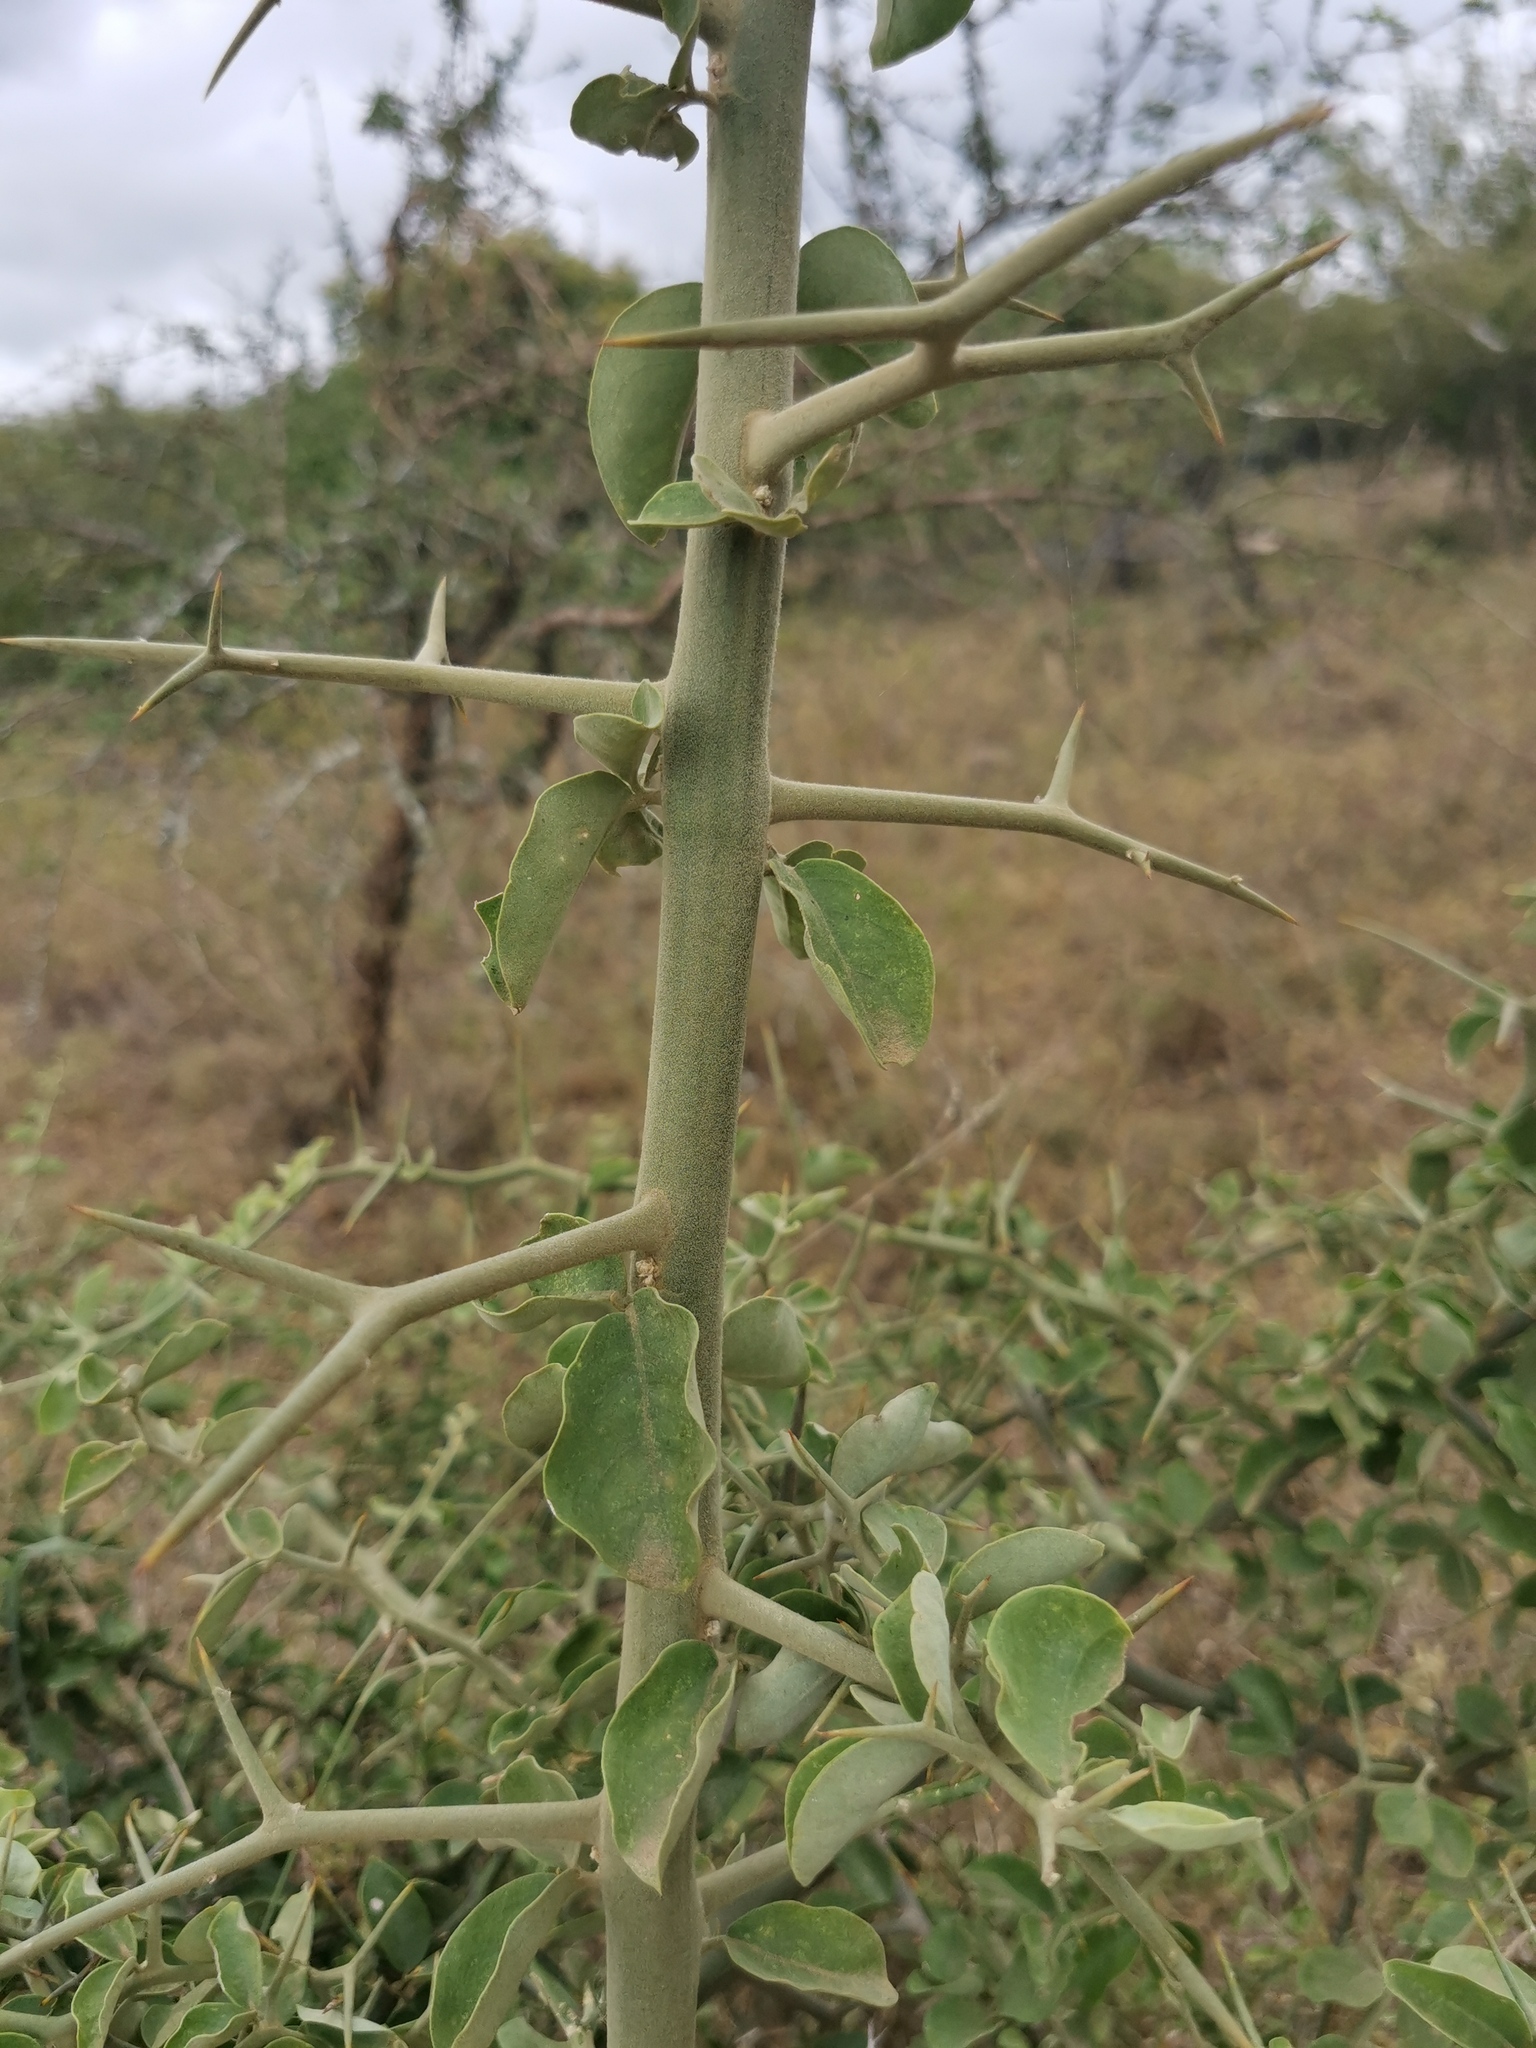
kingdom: Plantae
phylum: Tracheophyta
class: Magnoliopsida
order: Zygophyllales
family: Zygophyllaceae
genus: Balanites
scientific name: Balanites maughamii
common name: Torchwood
